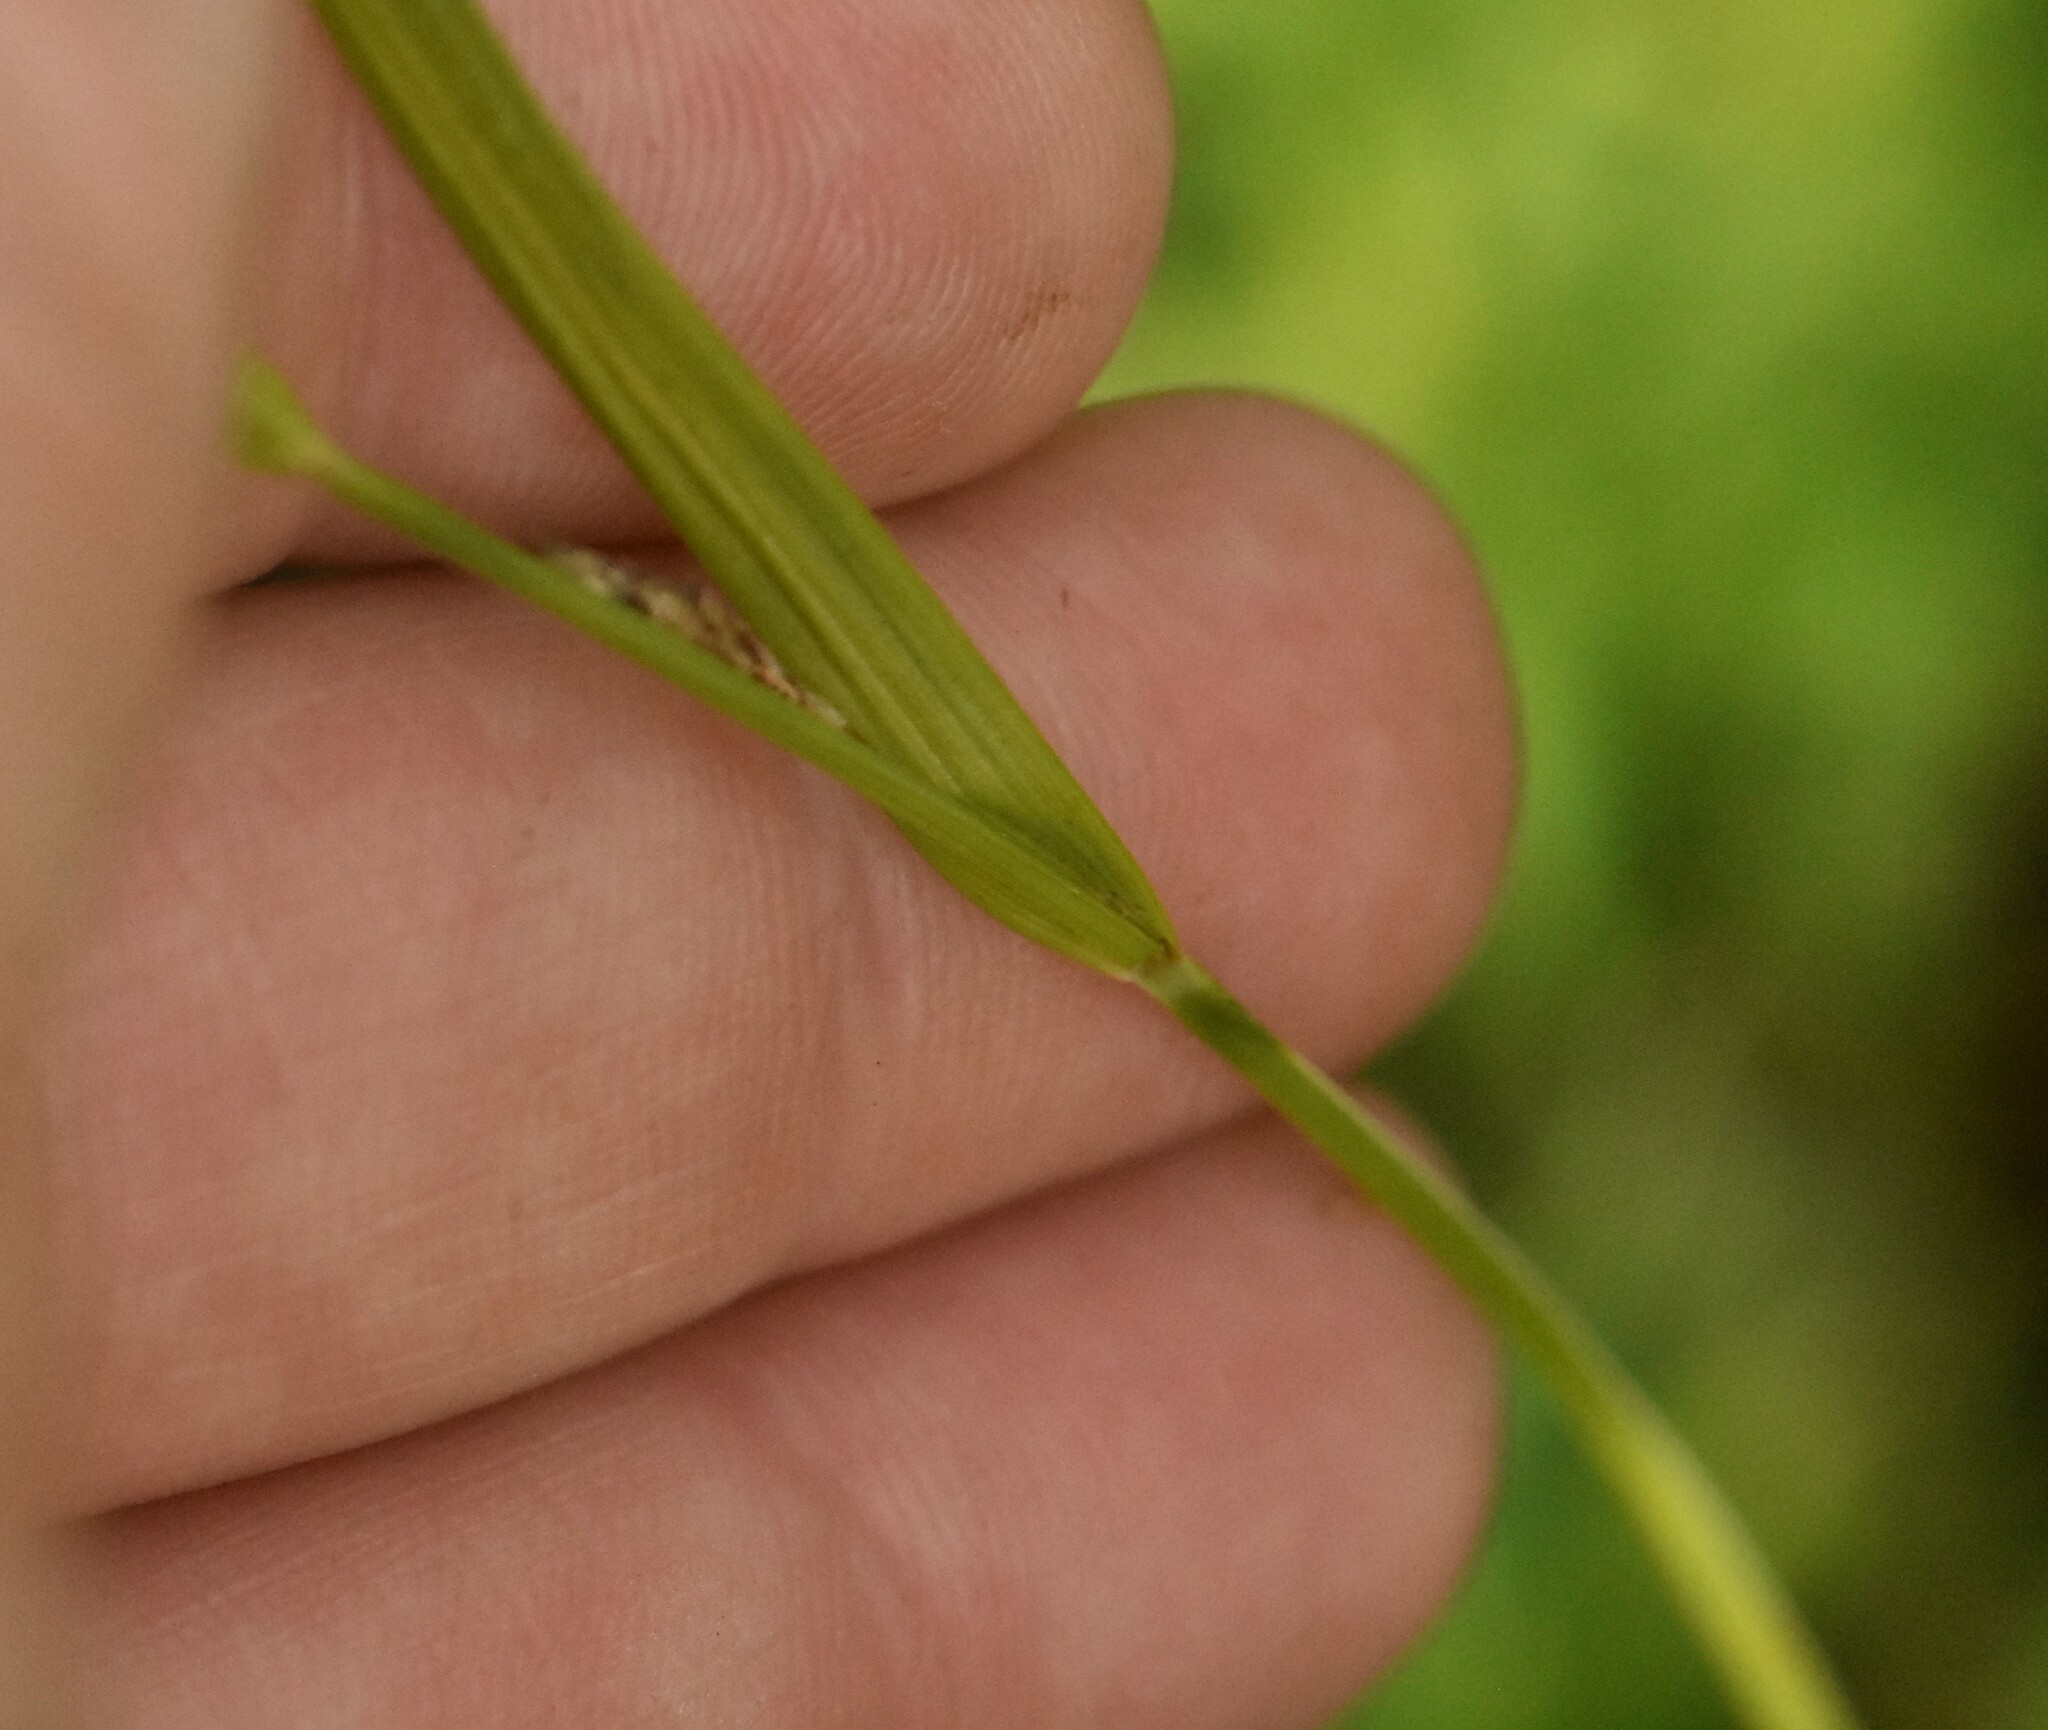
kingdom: Plantae
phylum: Tracheophyta
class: Liliopsida
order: Poales
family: Cyperaceae
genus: Carex
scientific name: Carex pallescens
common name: Pale sedge
